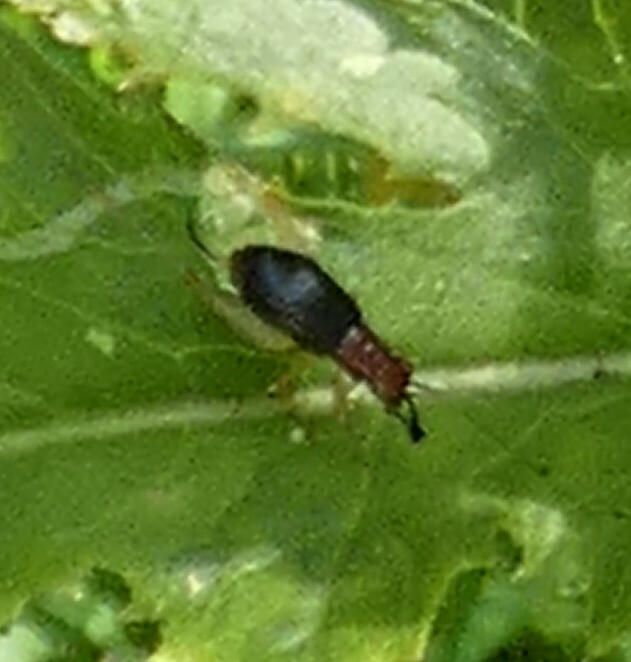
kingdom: Animalia
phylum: Arthropoda
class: Insecta
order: Orthoptera
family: Trigonidiidae
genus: Phyllopalpus
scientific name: Phyllopalpus pulchellus
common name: Handsome trig
